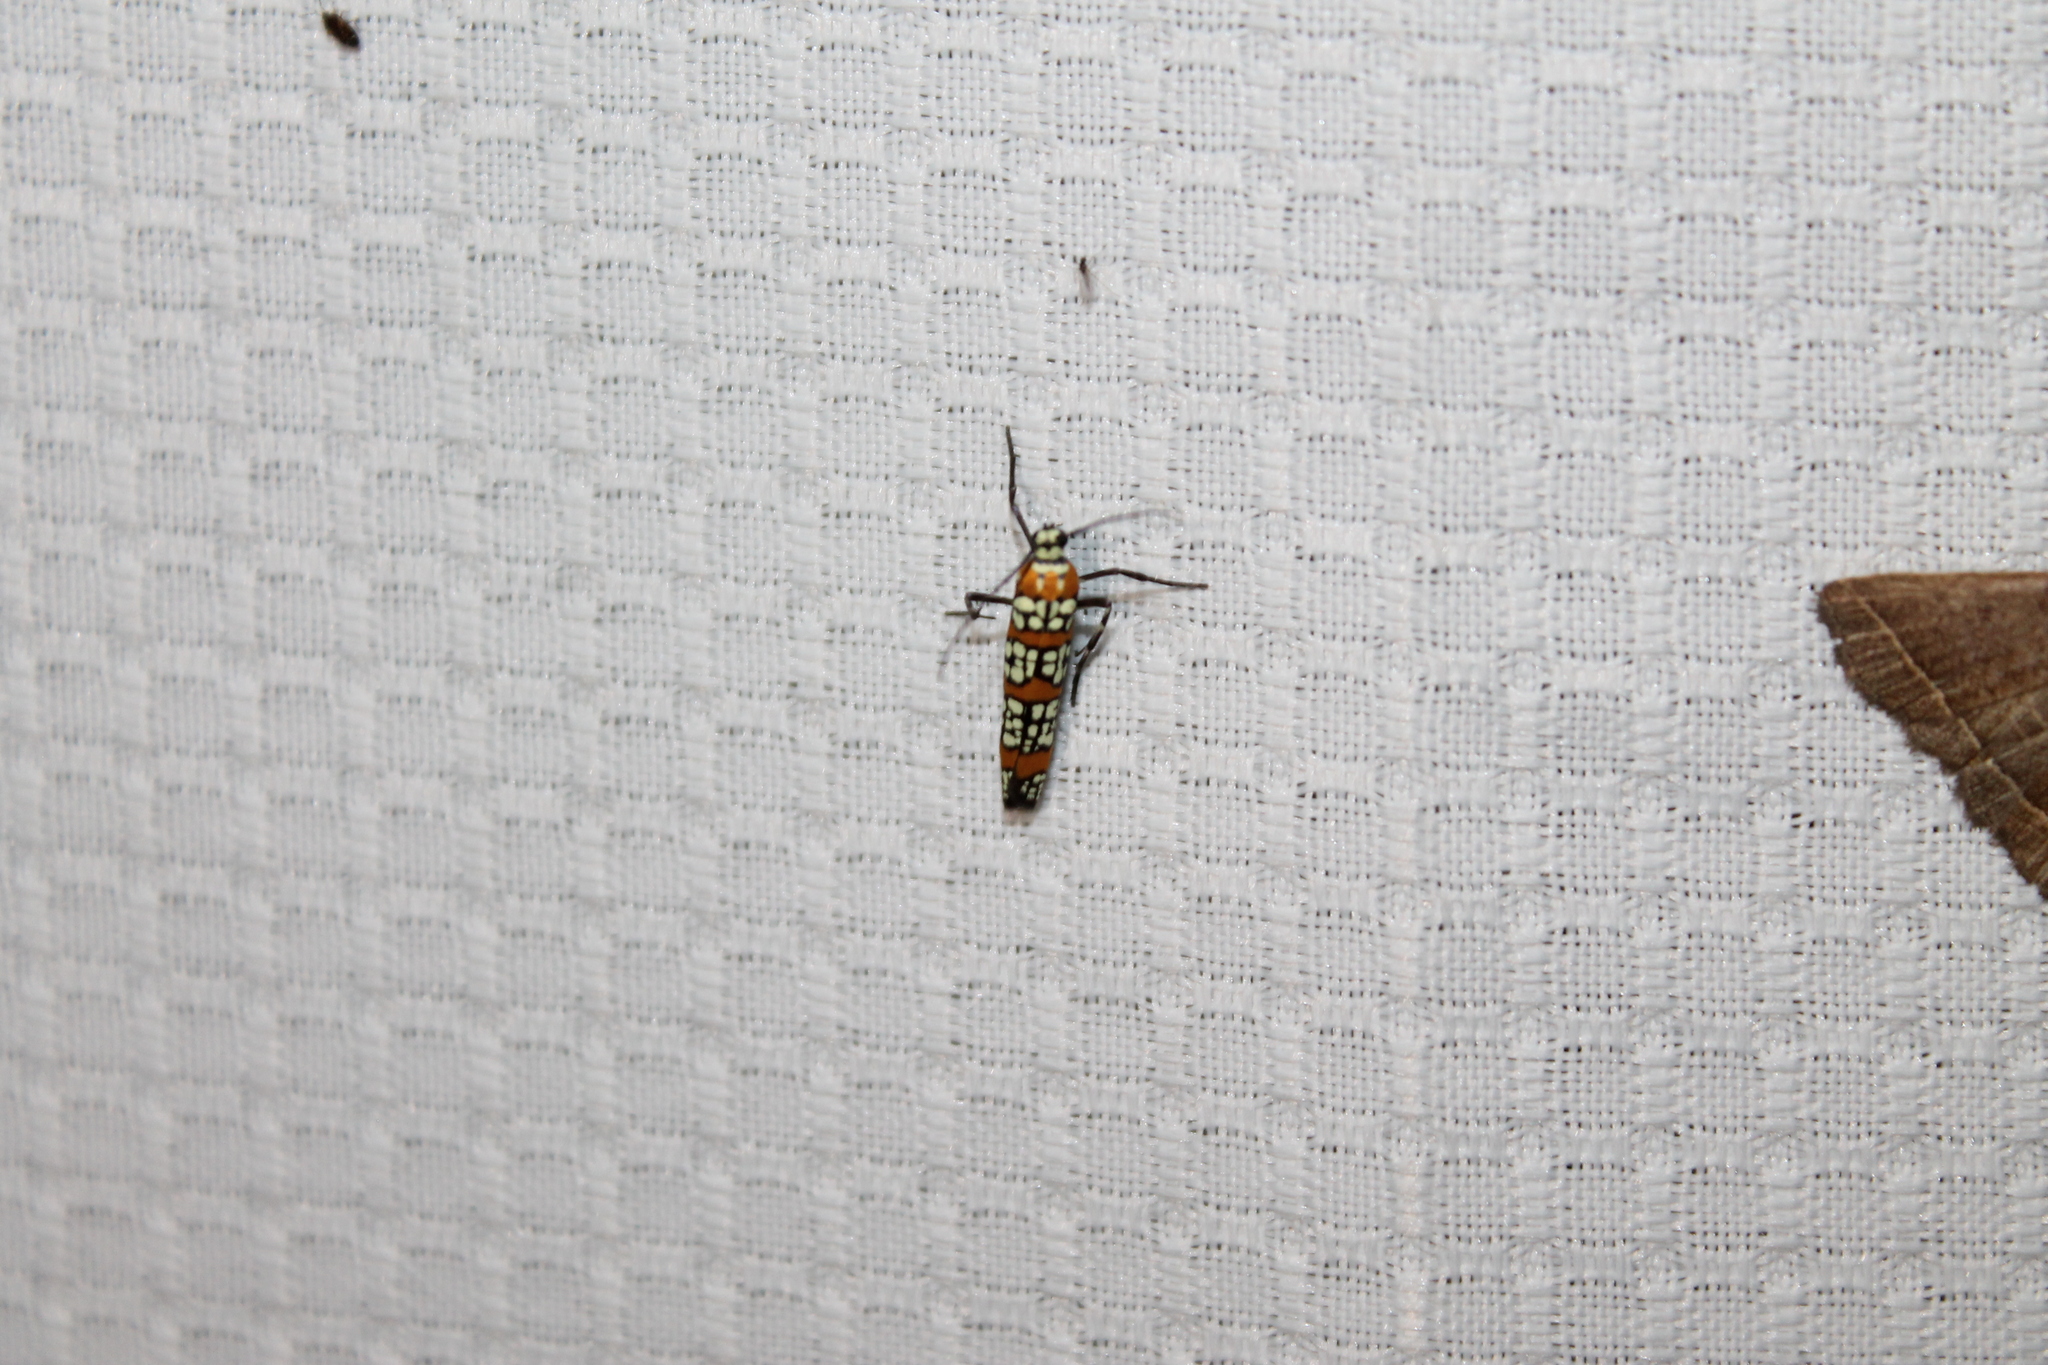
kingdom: Animalia
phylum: Arthropoda
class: Insecta
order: Lepidoptera
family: Attevidae
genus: Atteva
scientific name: Atteva punctella
